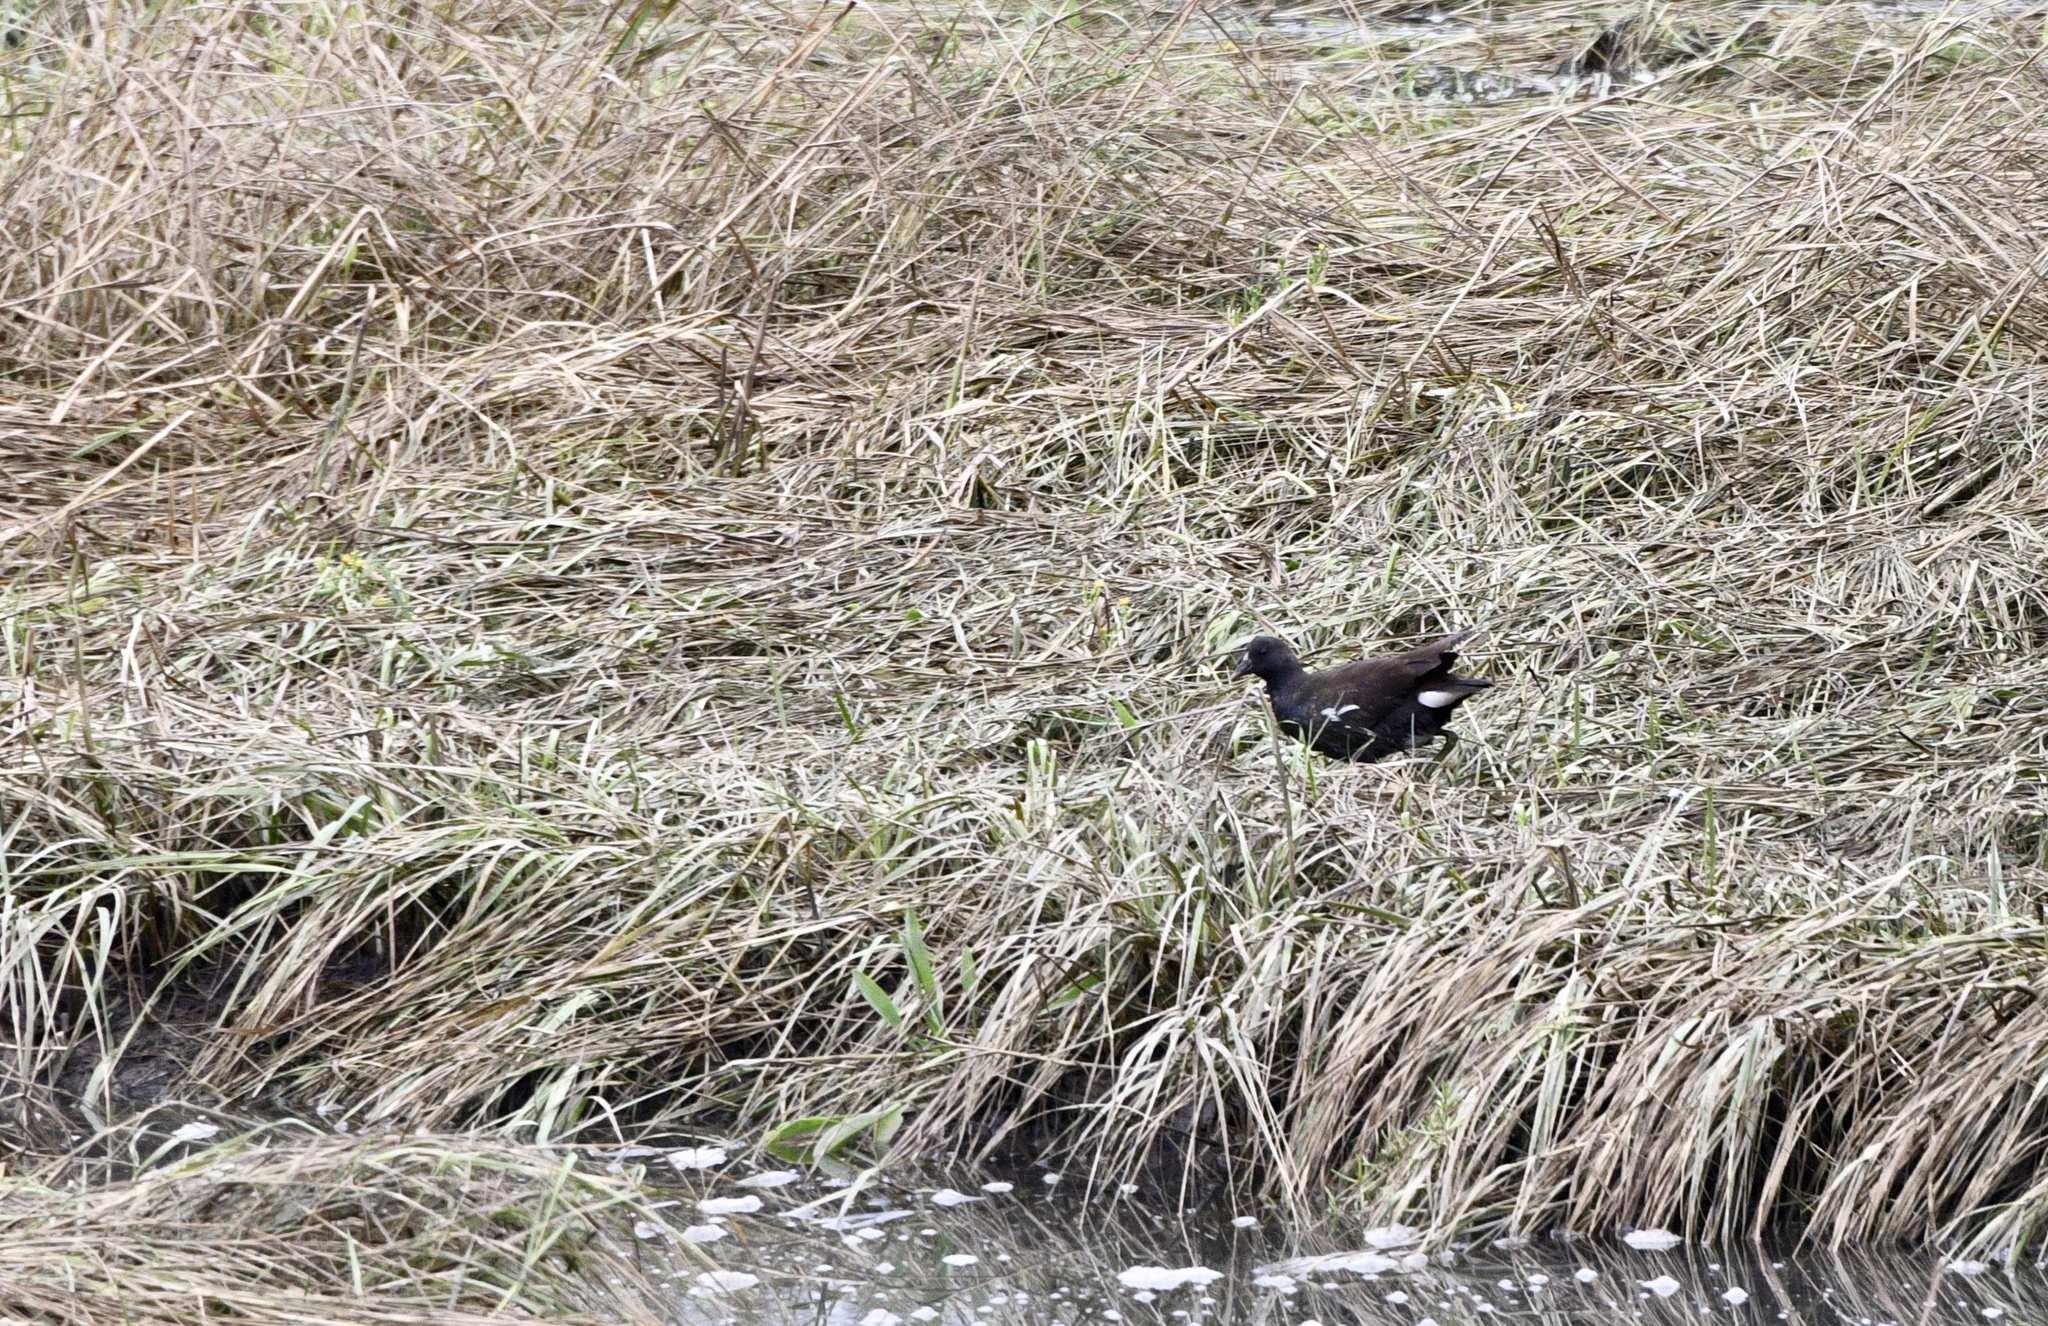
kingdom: Animalia
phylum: Chordata
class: Aves
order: Gruiformes
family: Rallidae
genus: Gallinula
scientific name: Gallinula chloropus
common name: Common moorhen
